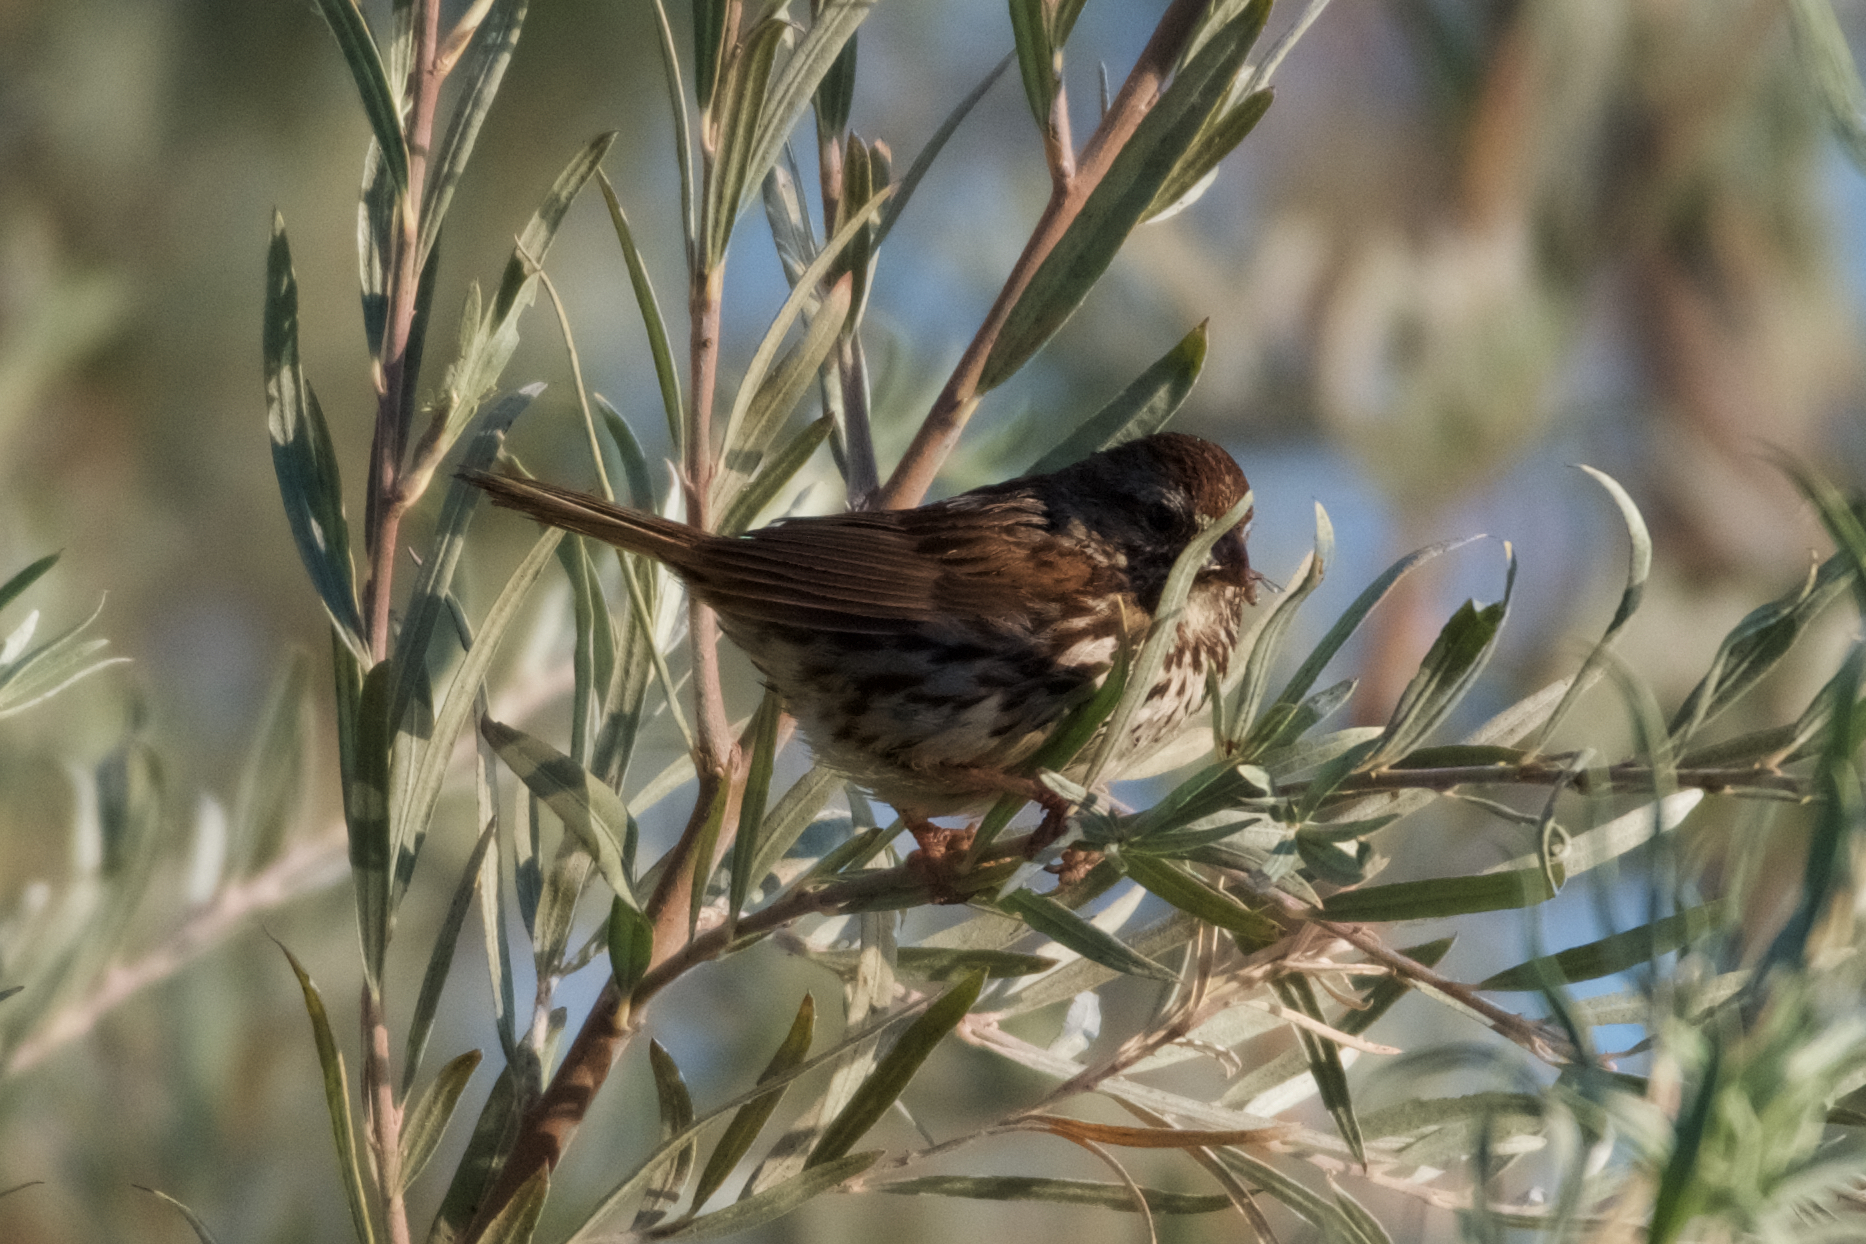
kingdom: Animalia
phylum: Chordata
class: Aves
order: Passeriformes
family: Passerellidae
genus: Melospiza
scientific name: Melospiza melodia
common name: Song sparrow
